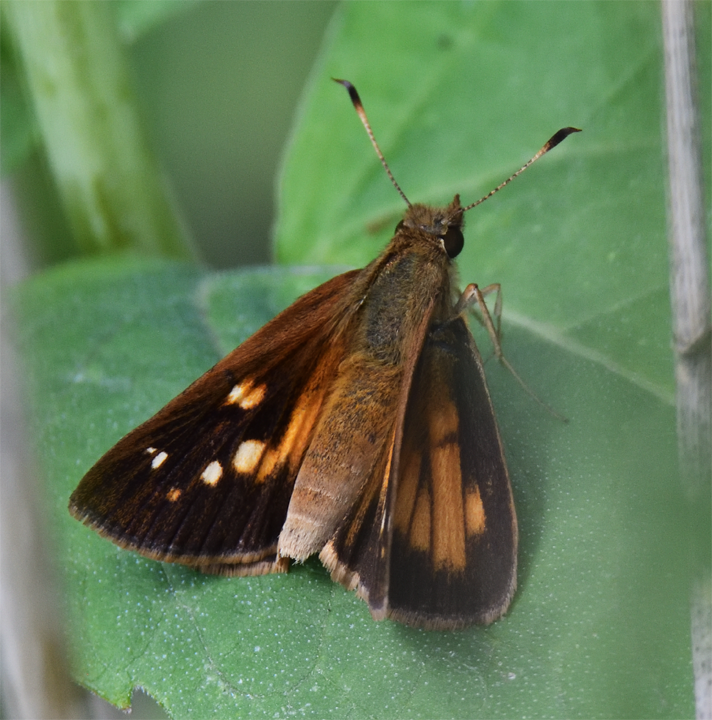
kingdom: Animalia
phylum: Arthropoda
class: Insecta
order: Lepidoptera
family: Hesperiidae
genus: Poanes
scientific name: Poanes viator
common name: Broad-winged skipper
